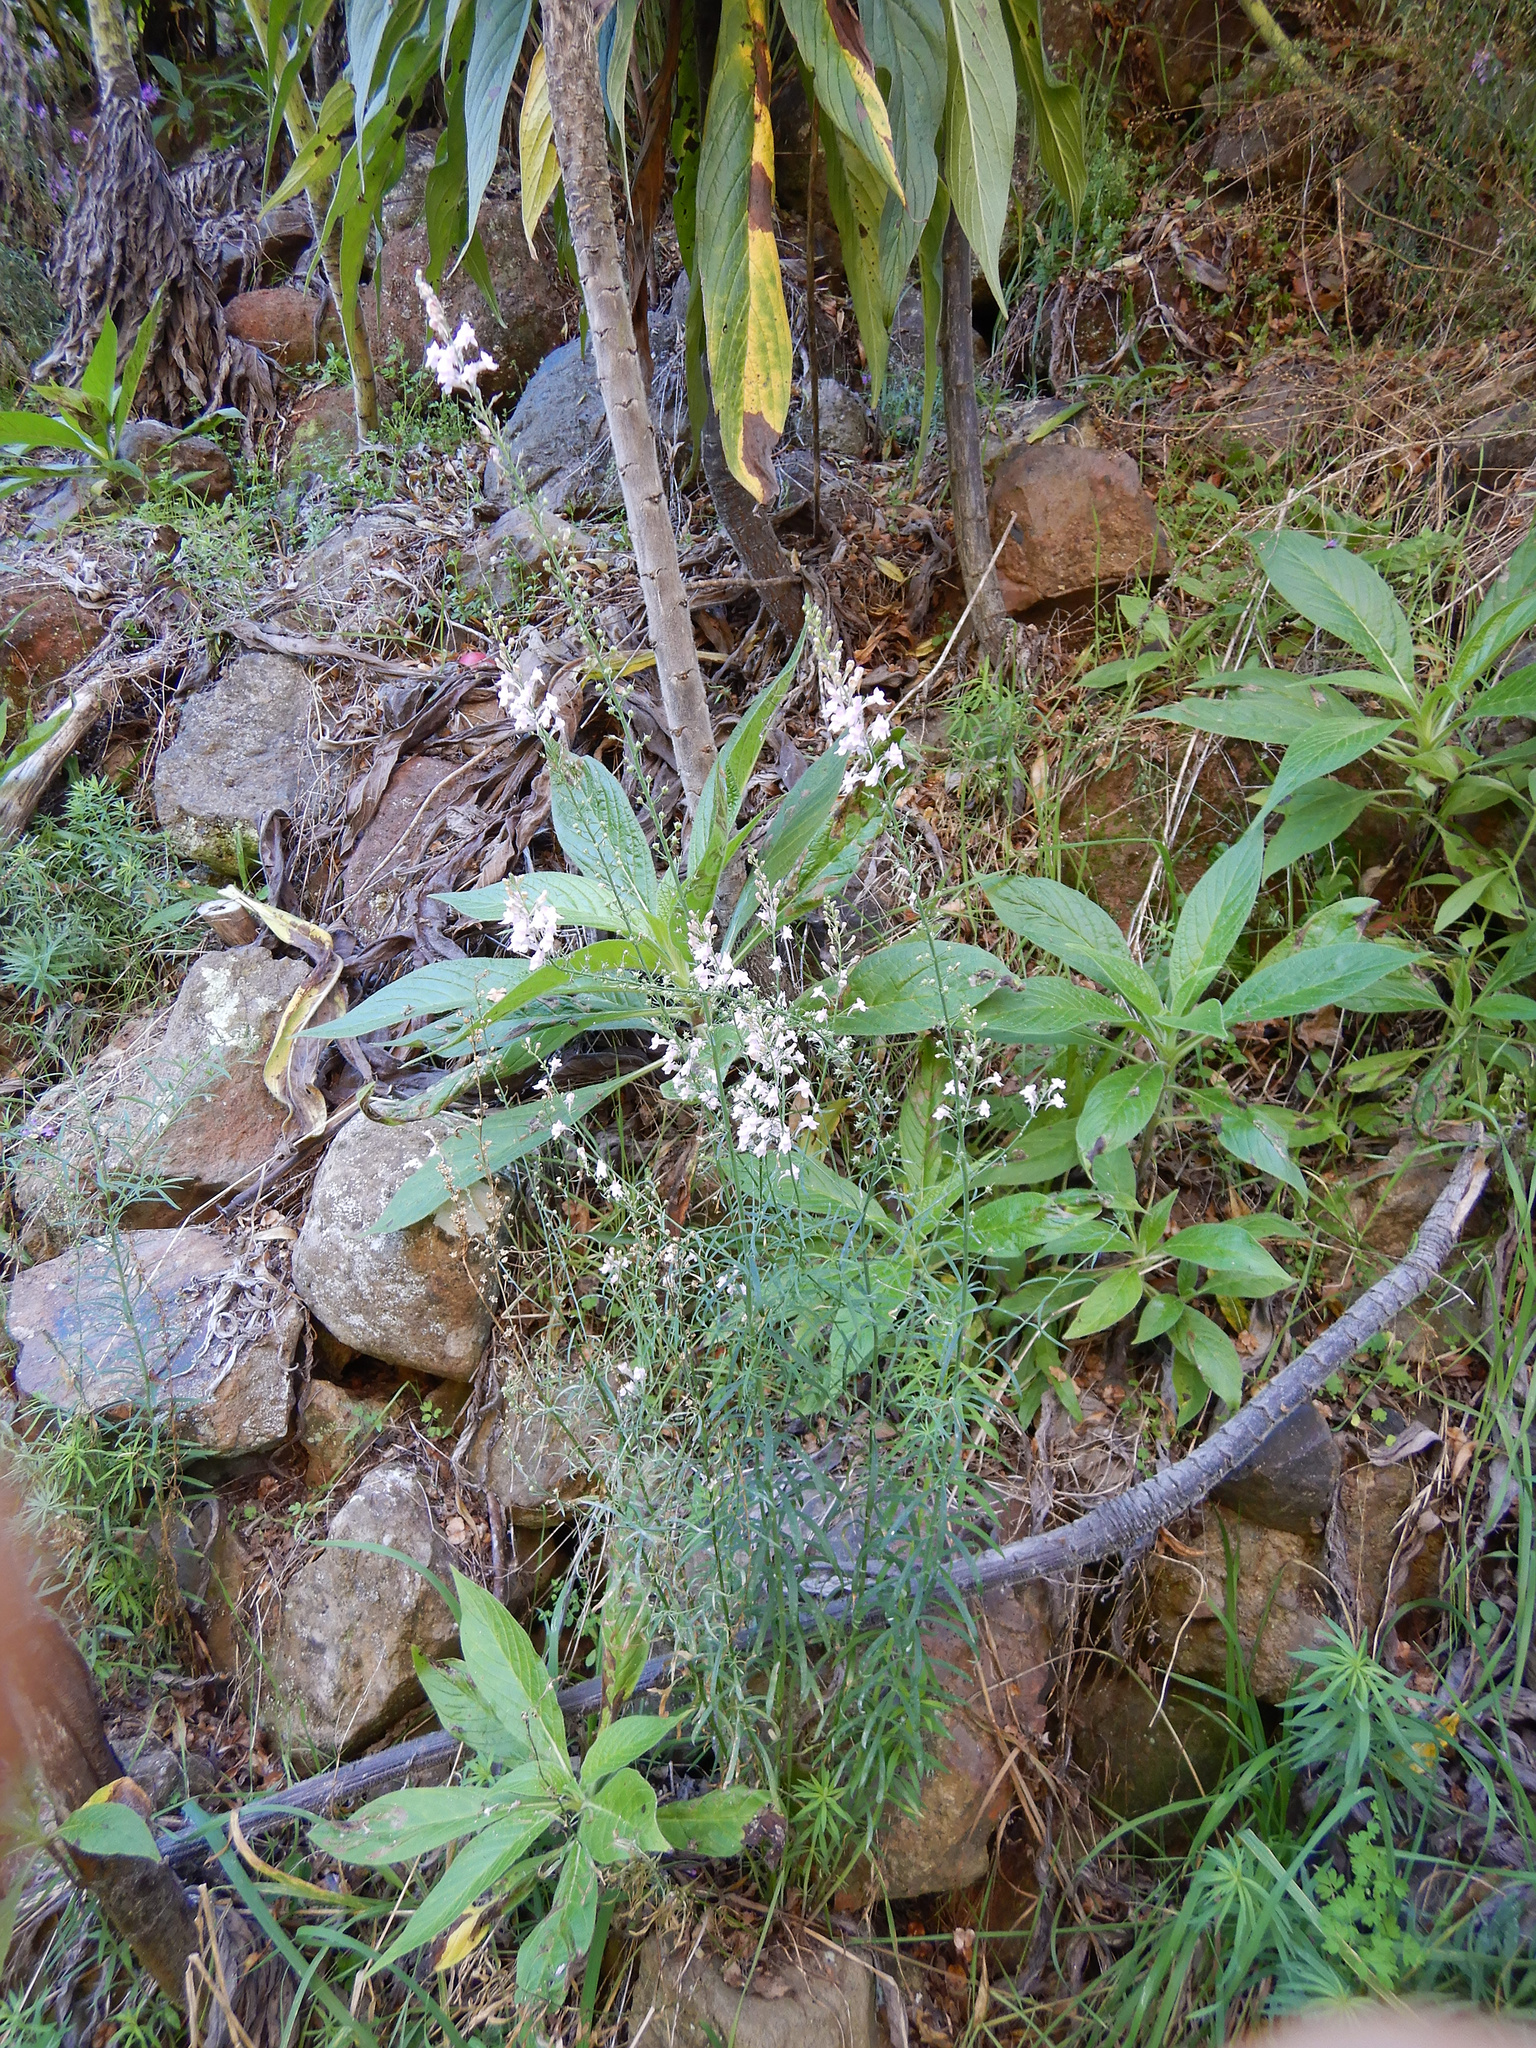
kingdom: Plantae
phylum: Tracheophyta
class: Magnoliopsida
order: Lamiales
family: Plantaginaceae
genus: Linaria
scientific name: Linaria purpurea
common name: Purple toadflax
